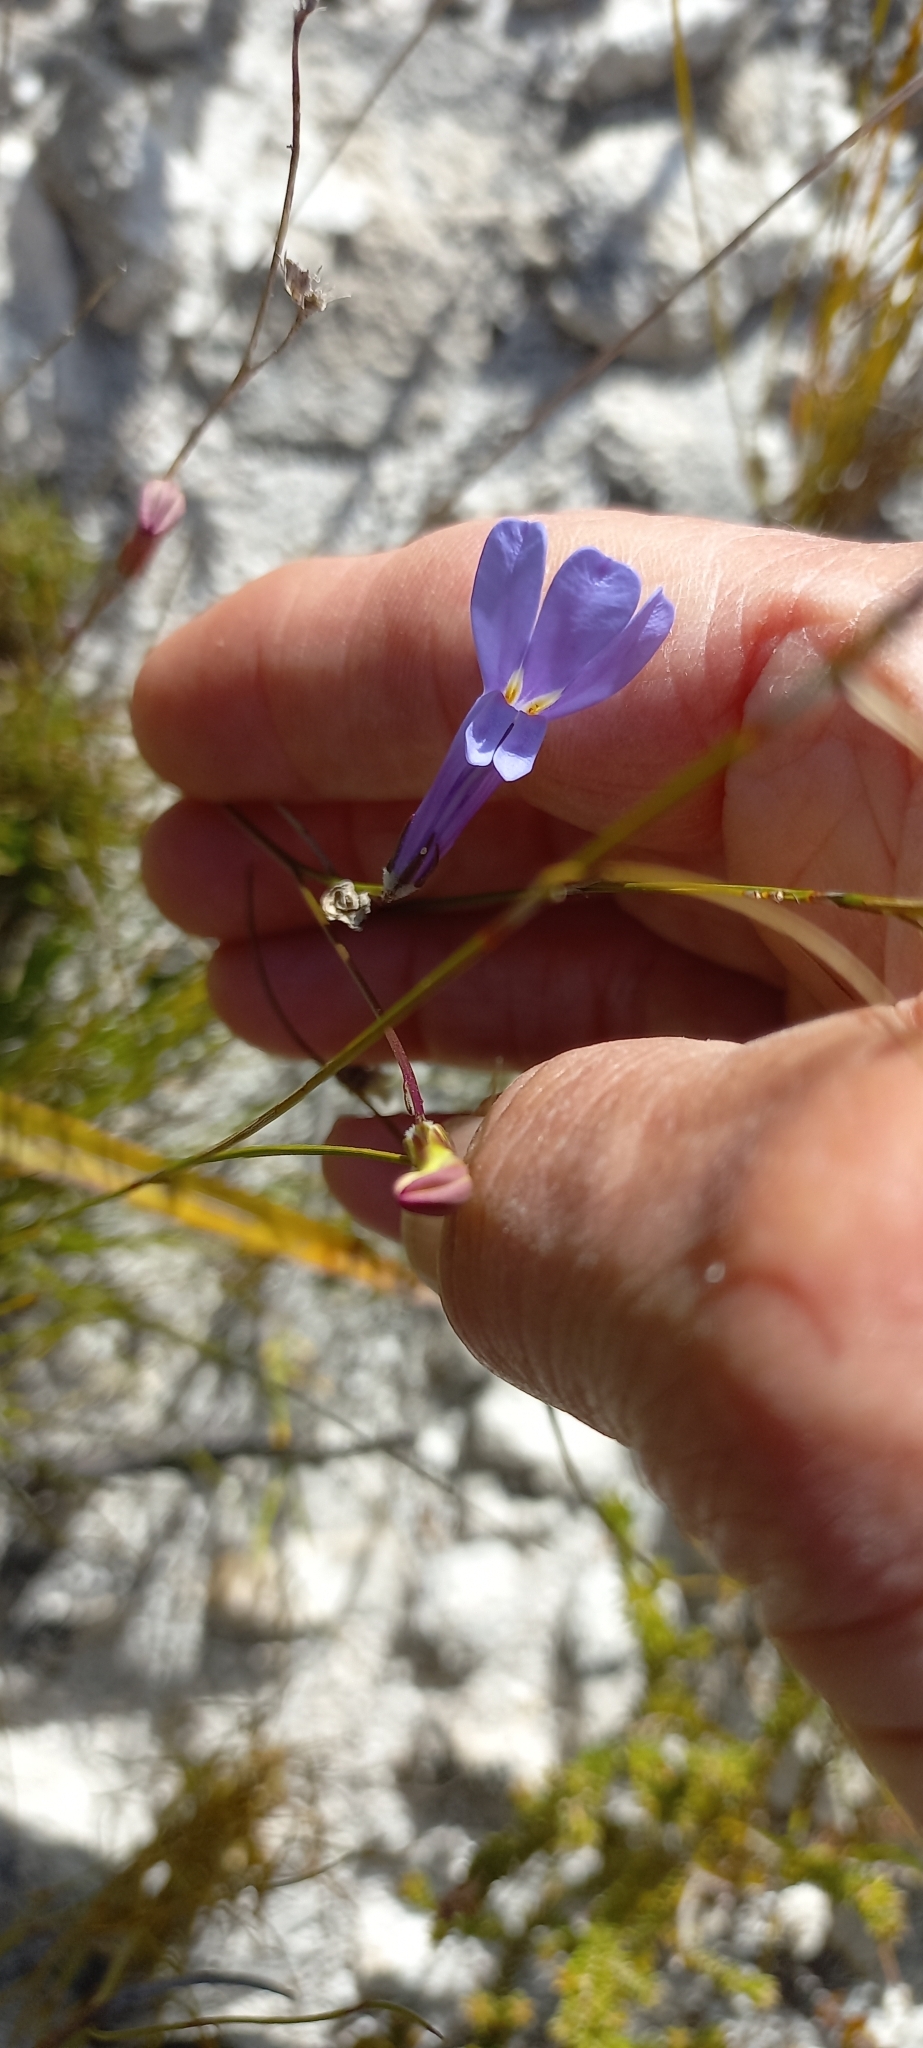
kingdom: Plantae
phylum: Tracheophyta
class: Magnoliopsida
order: Asterales
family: Campanulaceae
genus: Lobelia
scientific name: Lobelia coronopifolia
